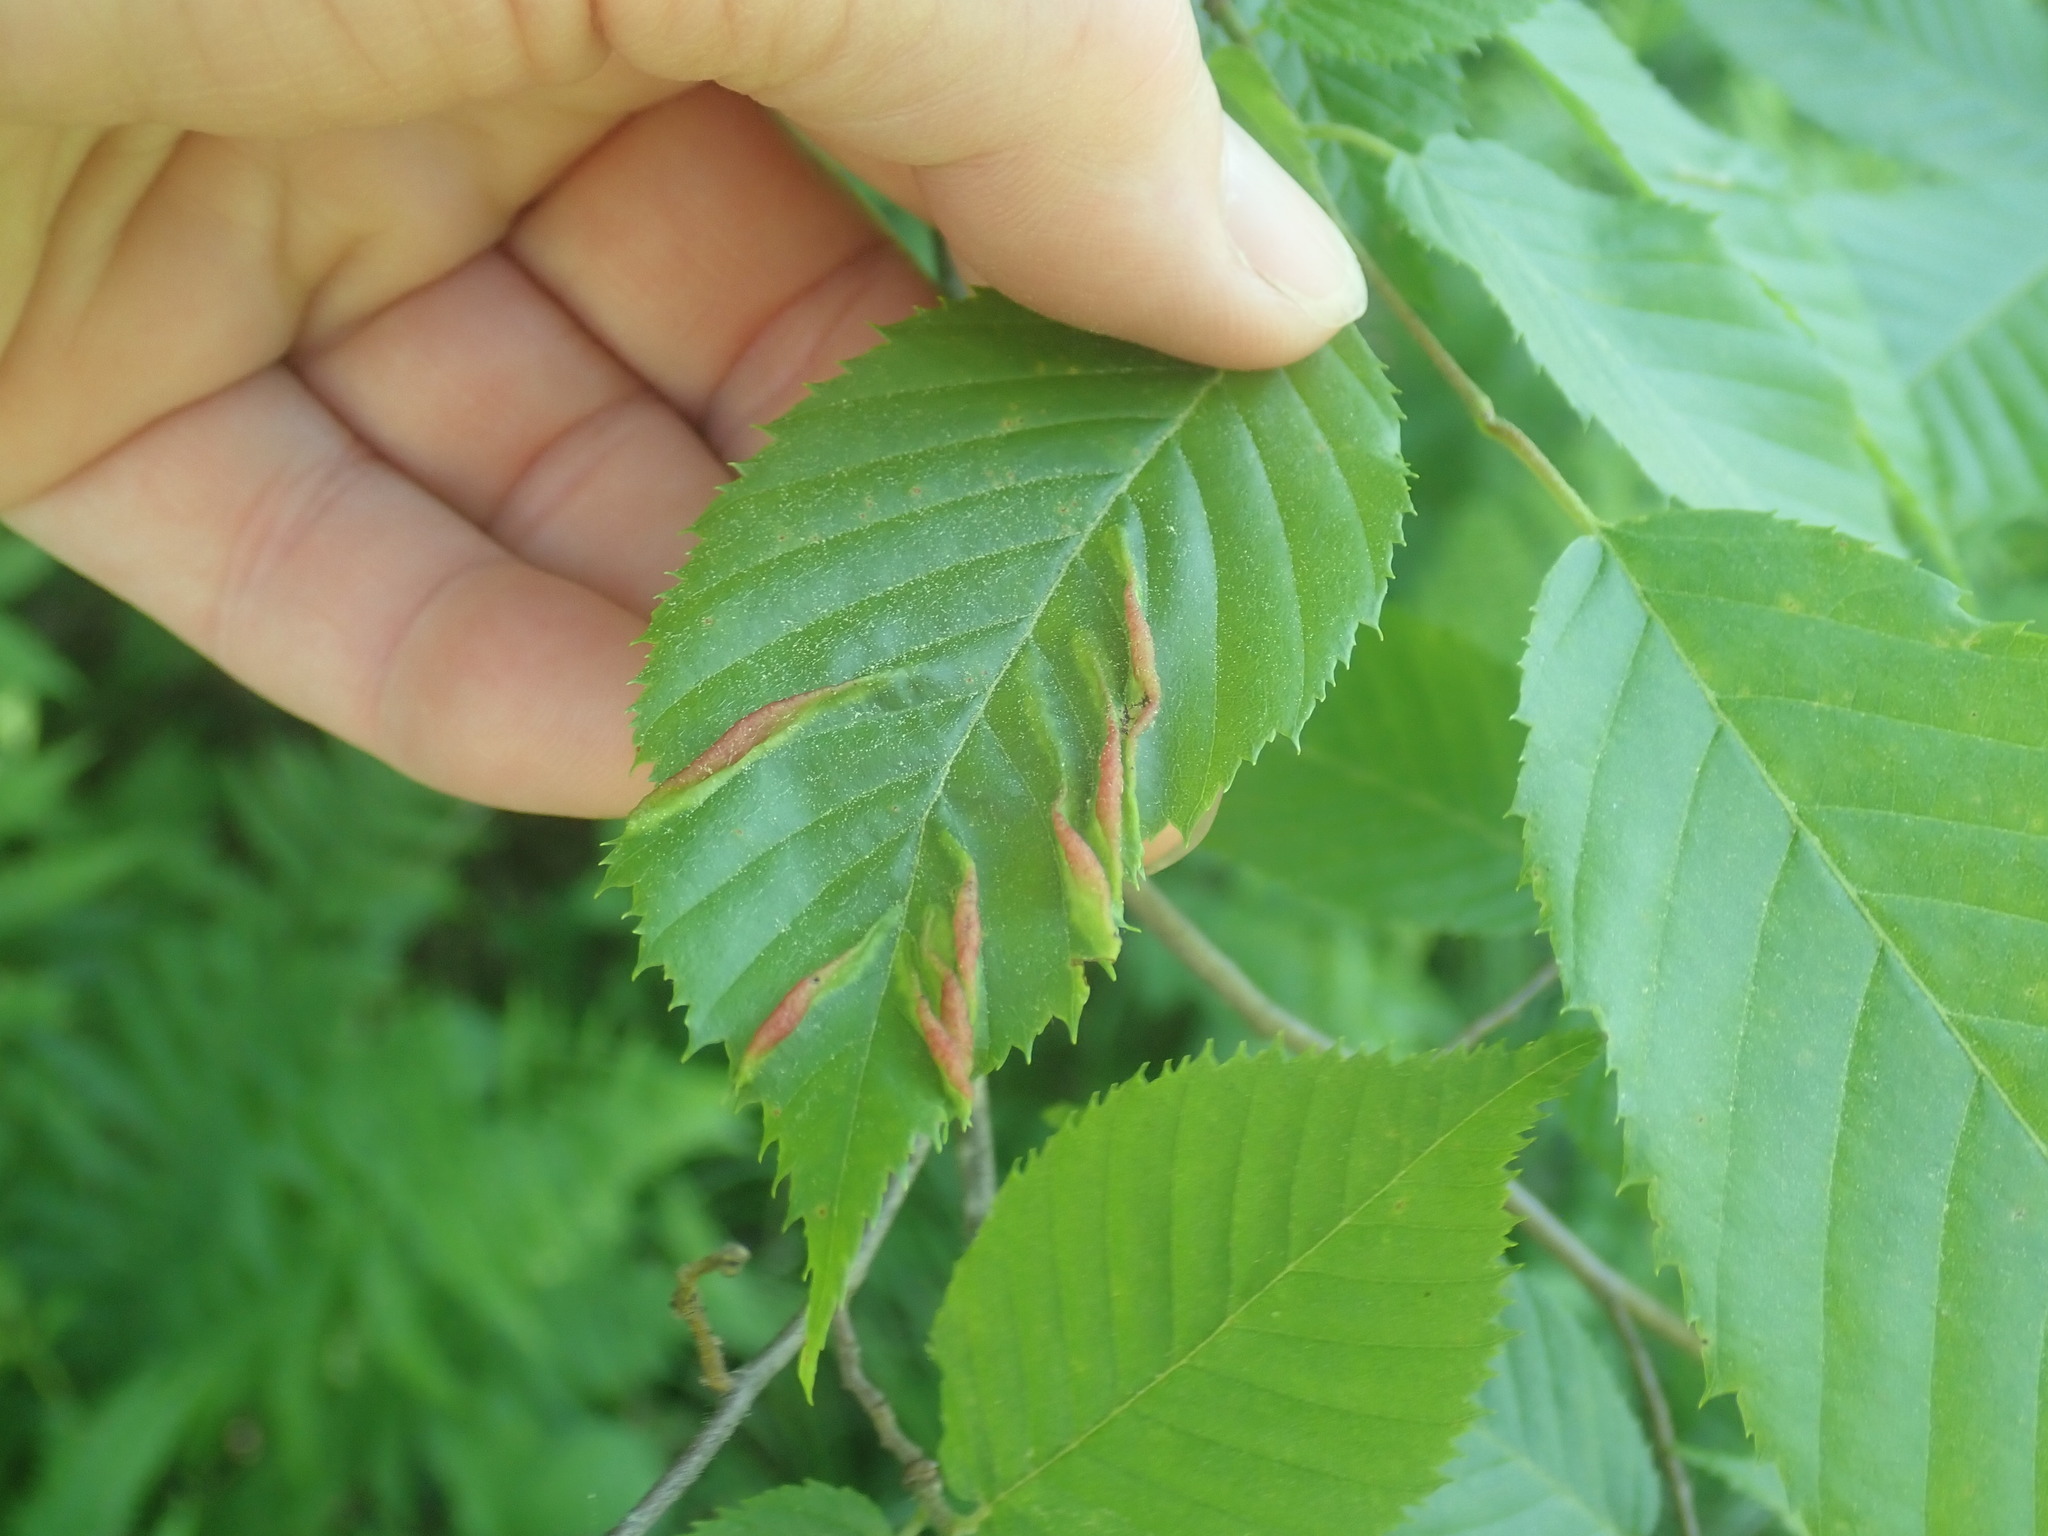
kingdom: Animalia
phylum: Arthropoda
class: Insecta
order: Diptera
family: Cecidomyiidae
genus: Dasineura
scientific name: Dasineura pudibunda
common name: Hornbeam leaf gall midge
